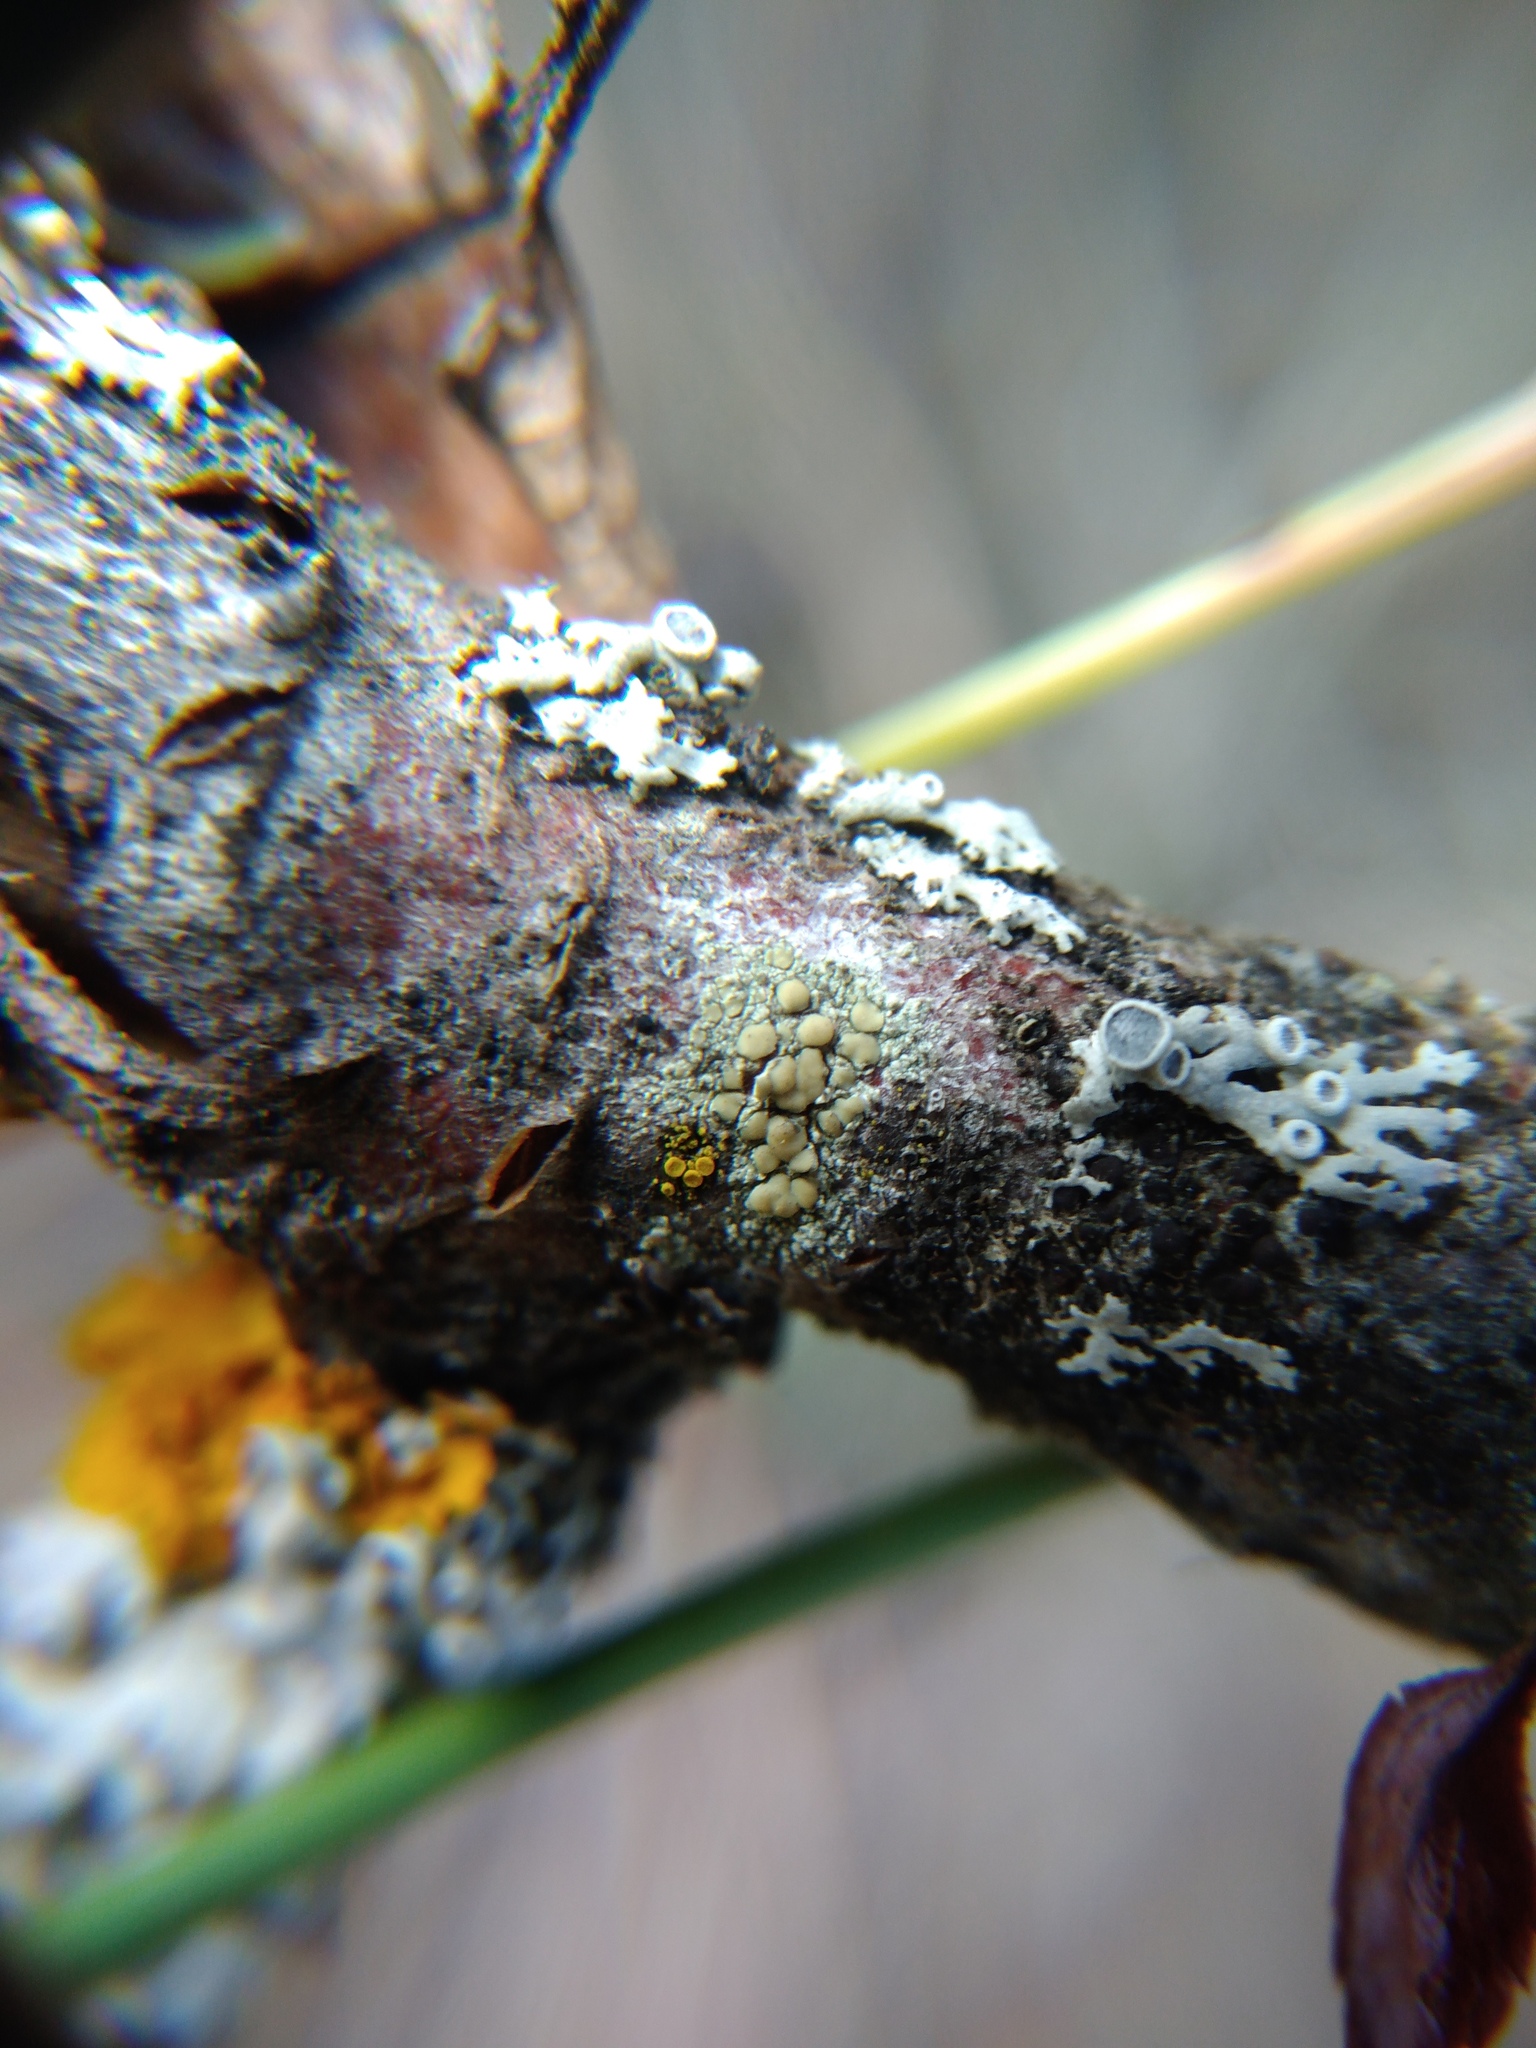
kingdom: Fungi
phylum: Ascomycota
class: Lecanoromycetes
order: Lecanorales
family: Lecanoraceae
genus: Lecanora
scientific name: Lecanora symmicta
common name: Fused rim lichen
